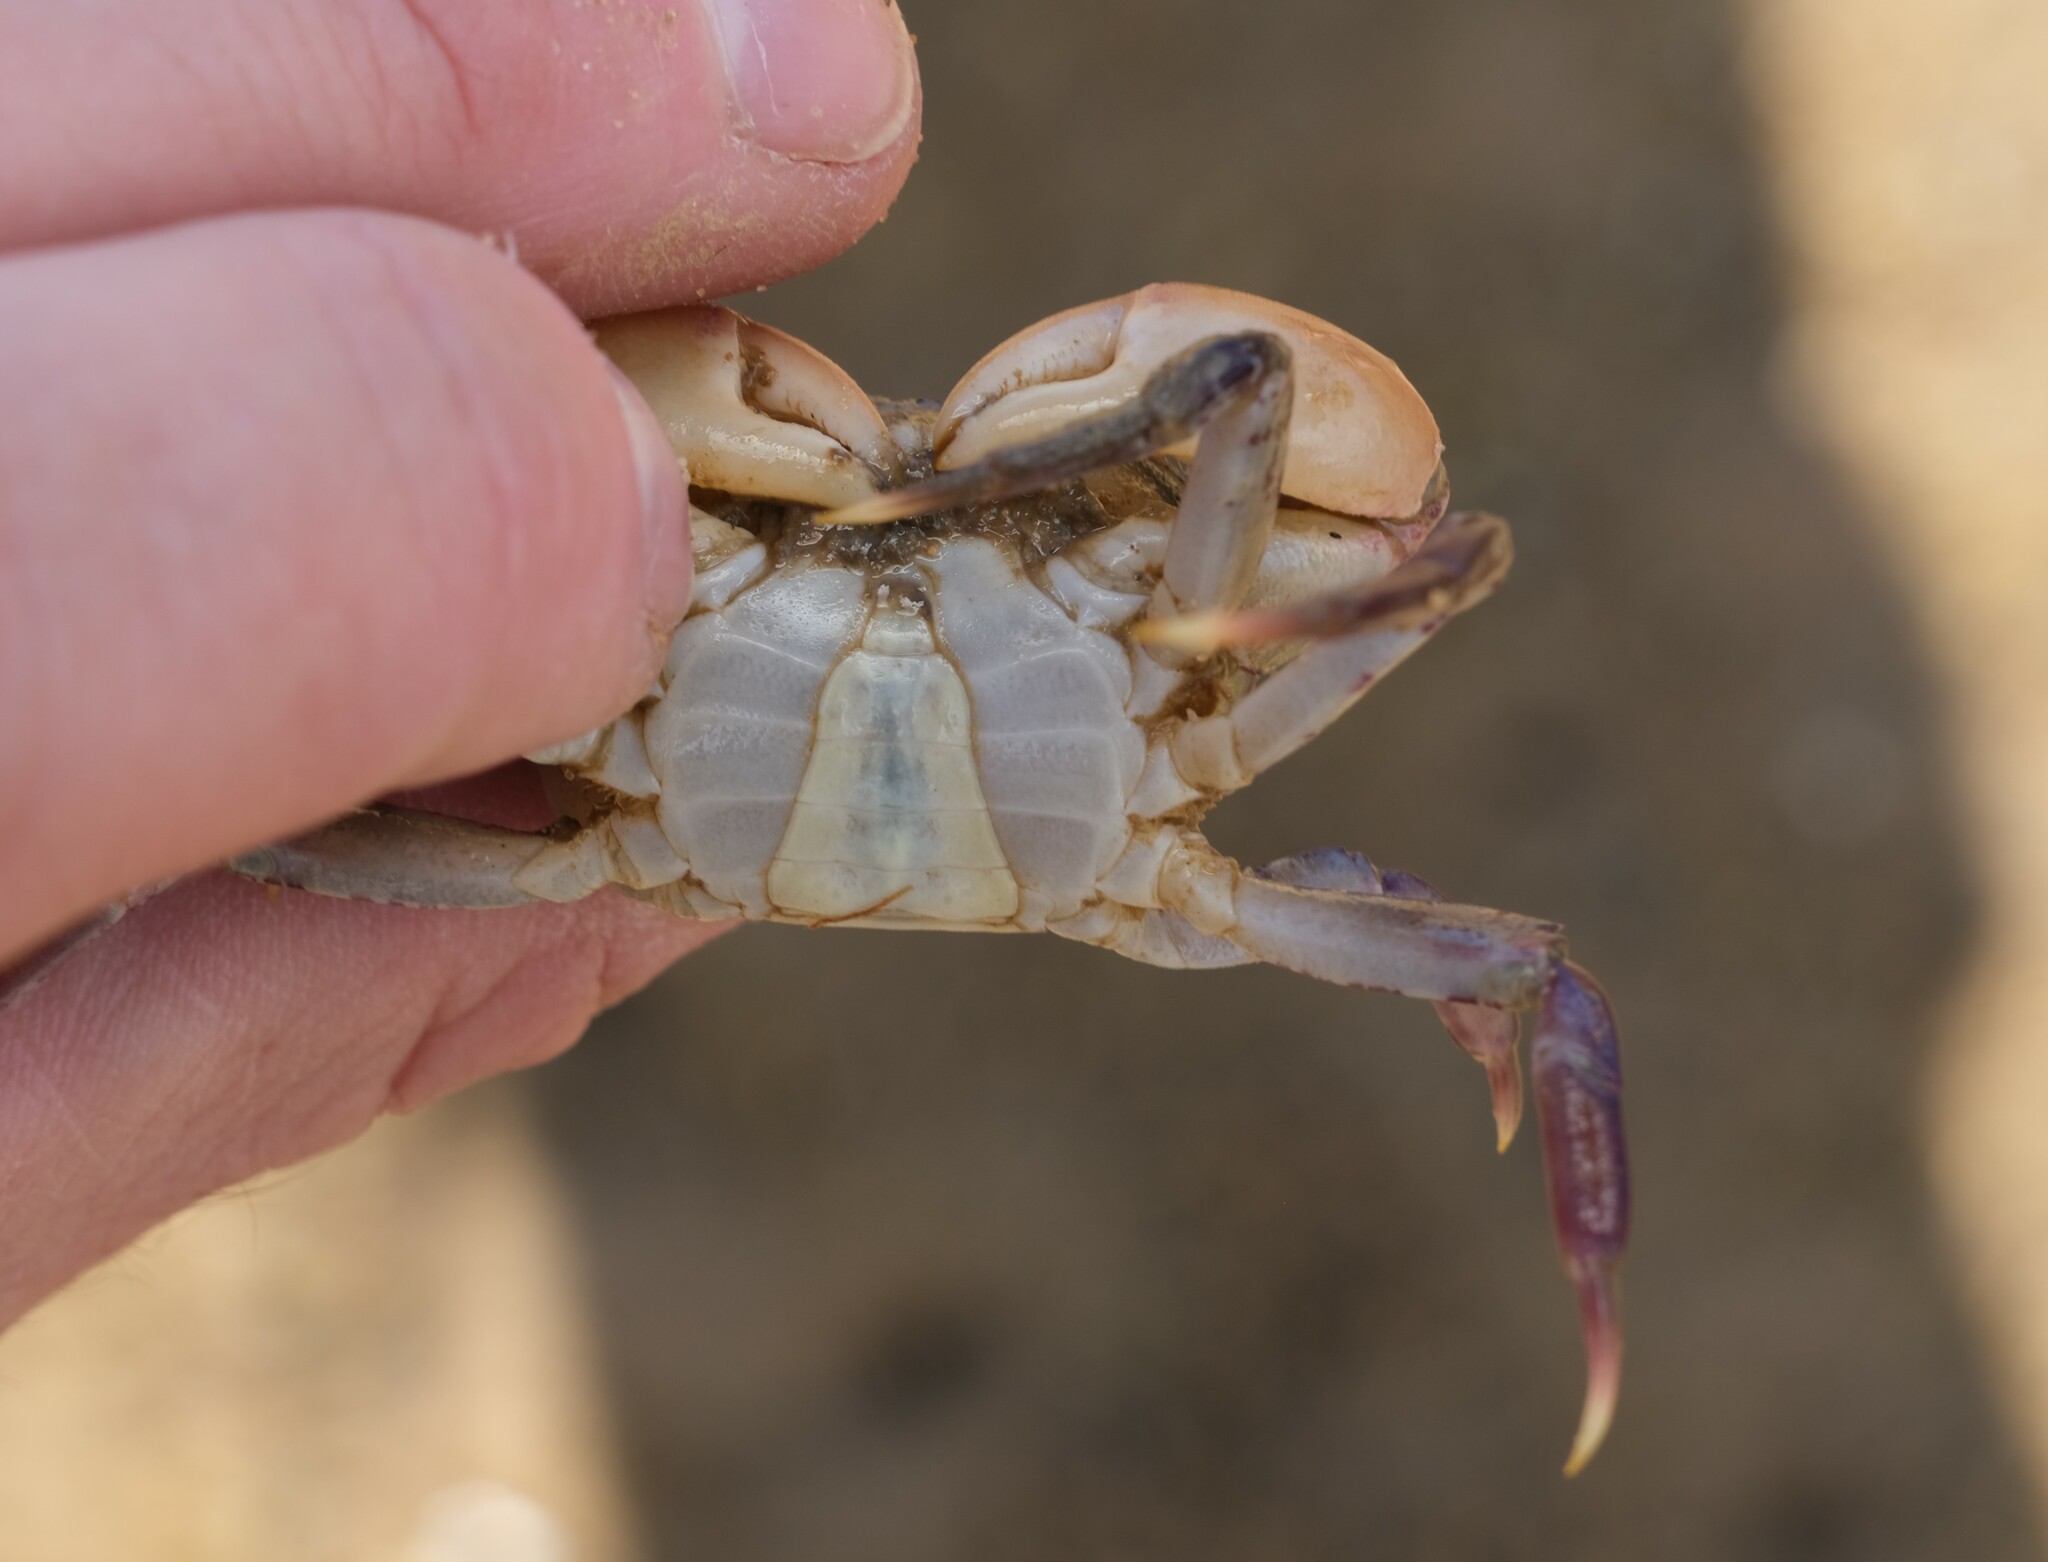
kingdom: Animalia
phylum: Arthropoda
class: Malacostraca
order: Decapoda
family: Varunidae
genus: Paragrapsus
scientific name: Paragrapsus laevis
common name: Smooth shore crab
